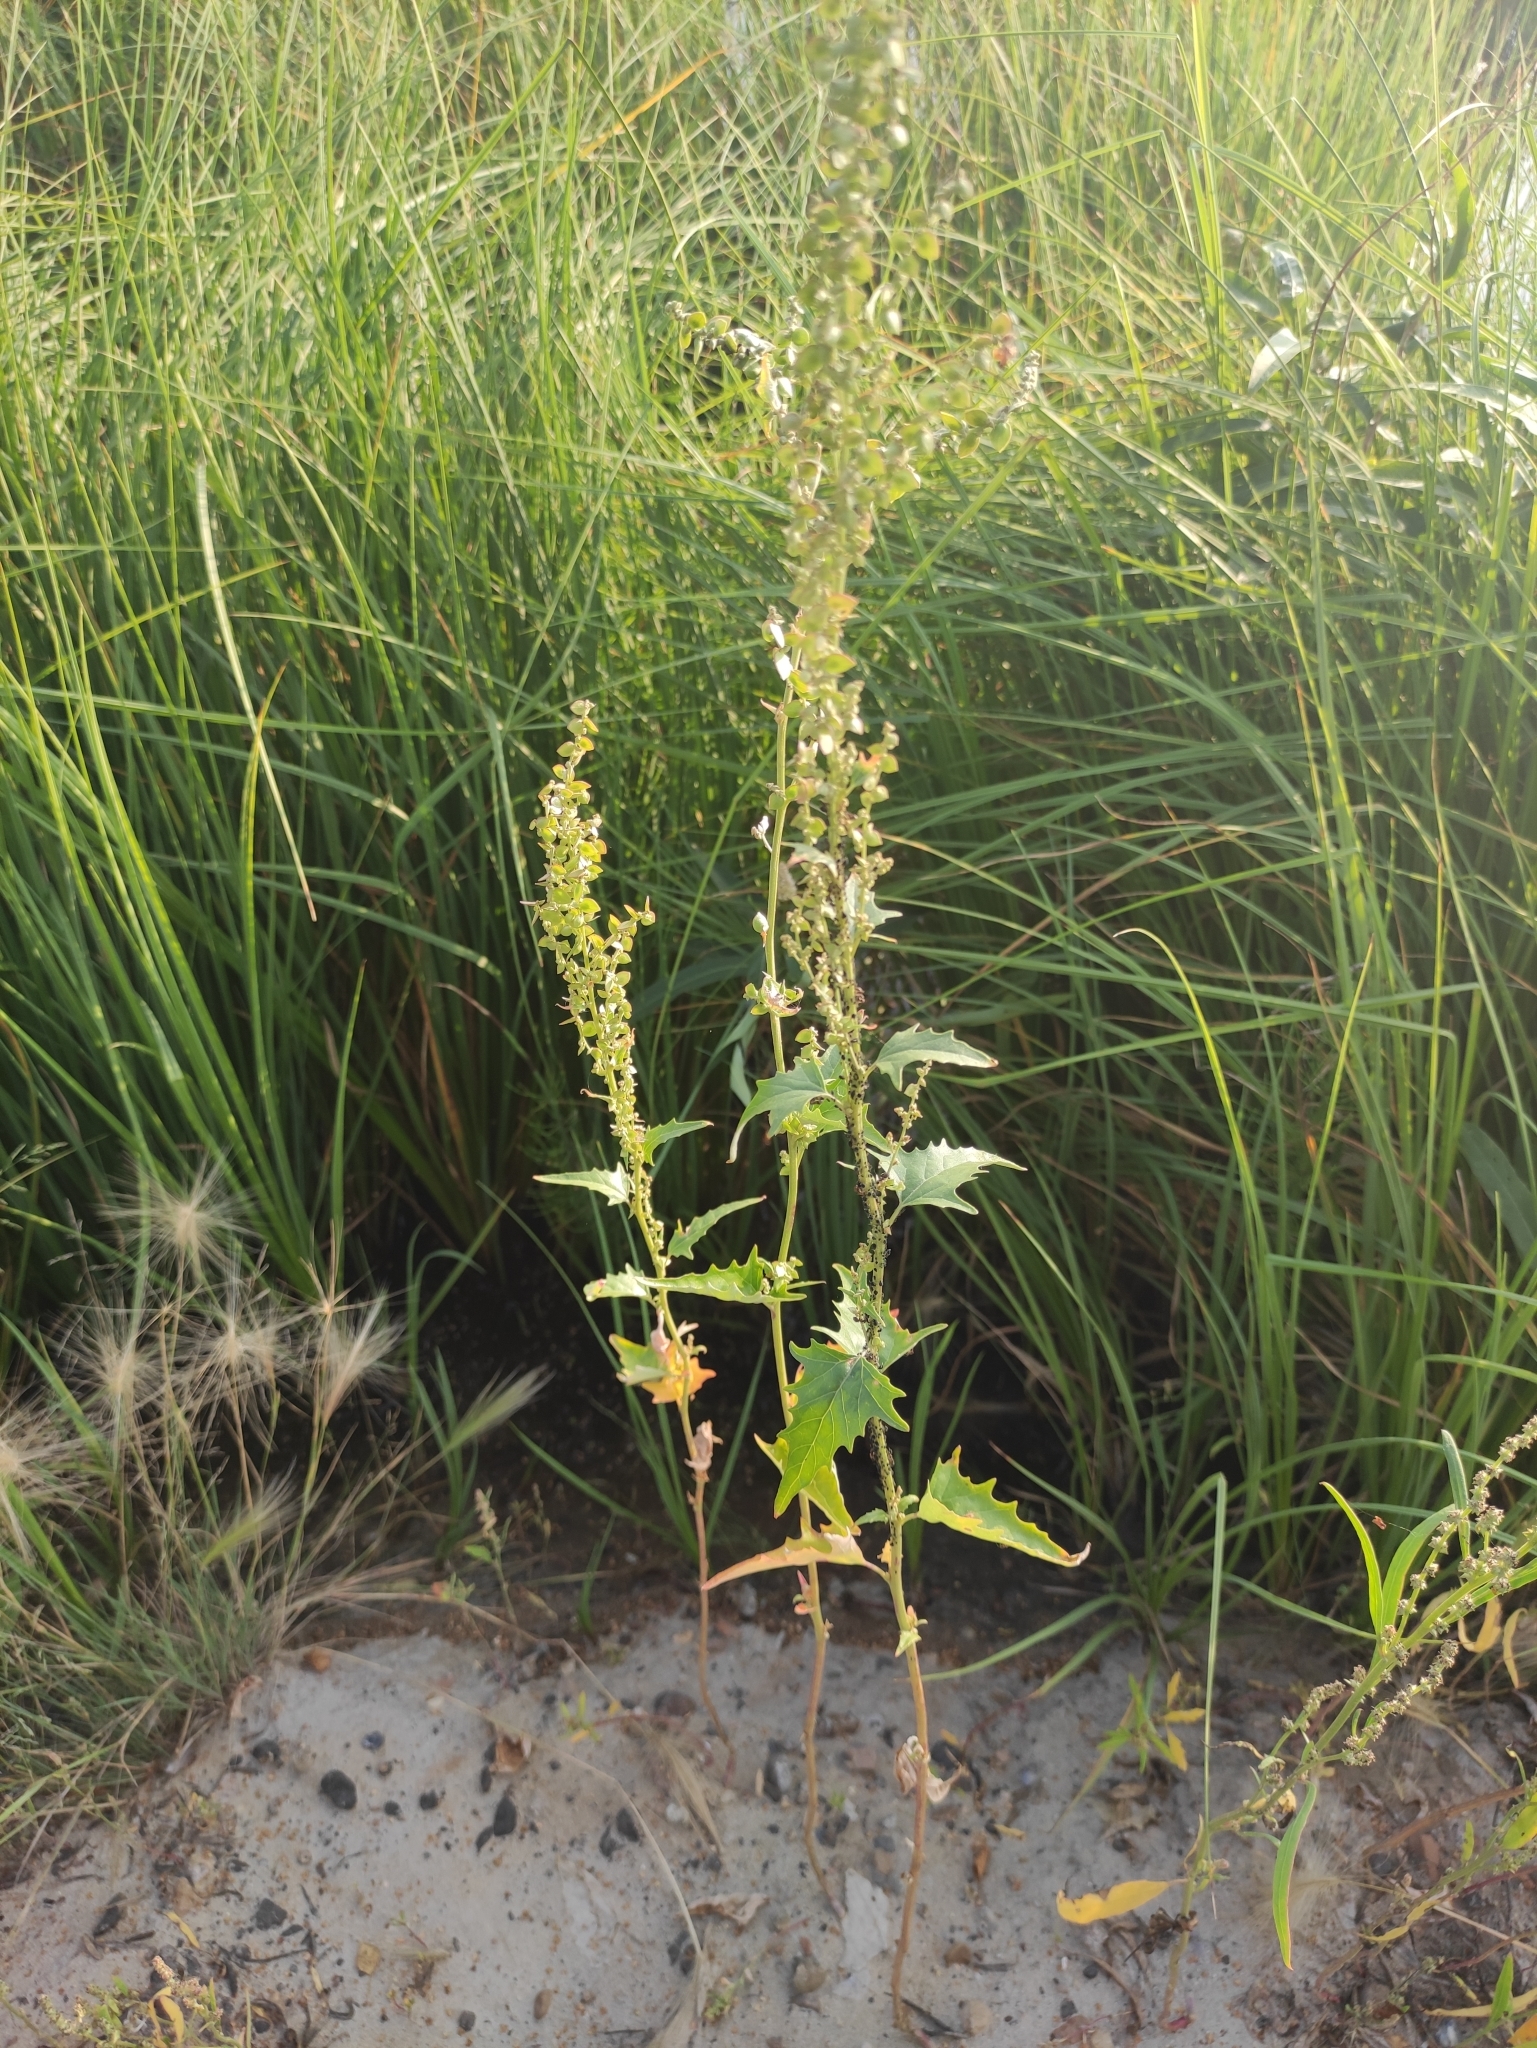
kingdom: Plantae
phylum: Tracheophyta
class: Magnoliopsida
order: Caryophyllales
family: Amaranthaceae
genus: Atriplex
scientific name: Atriplex sagittata
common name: Purple orache
